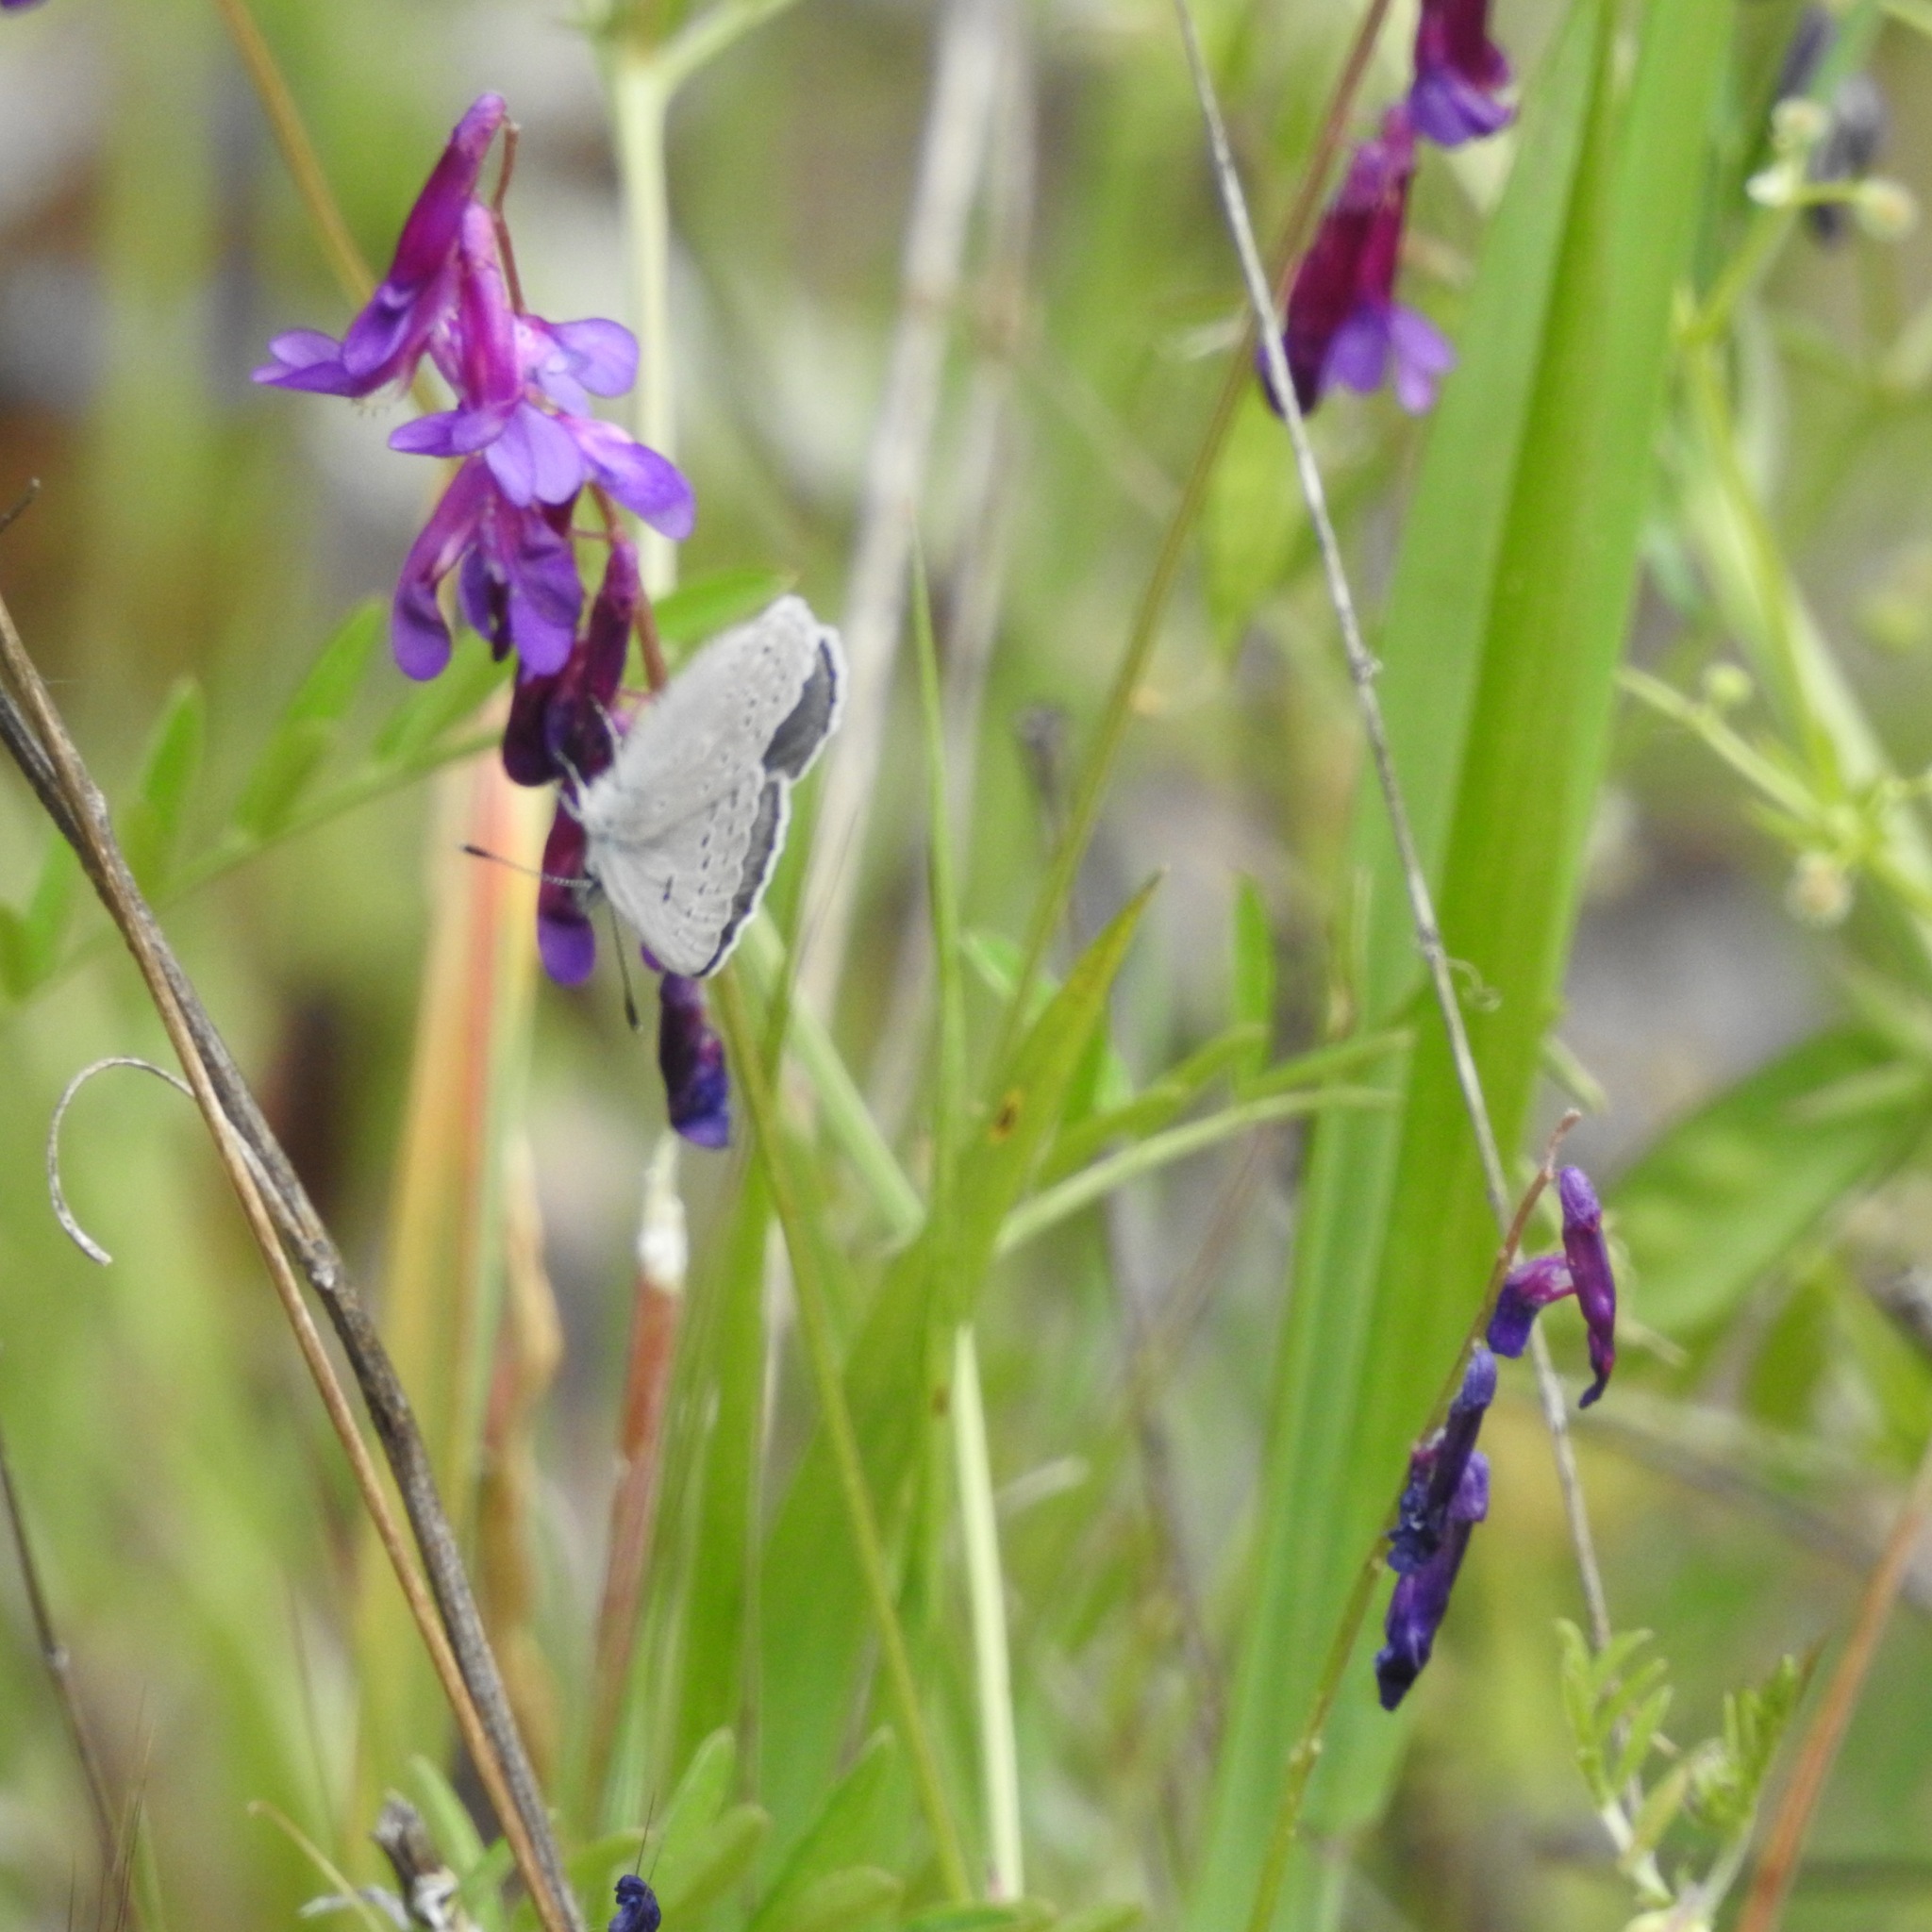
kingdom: Animalia
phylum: Arthropoda
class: Insecta
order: Lepidoptera
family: Lycaenidae
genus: Icaricia
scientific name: Icaricia icarioides
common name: Boisduval's blue
